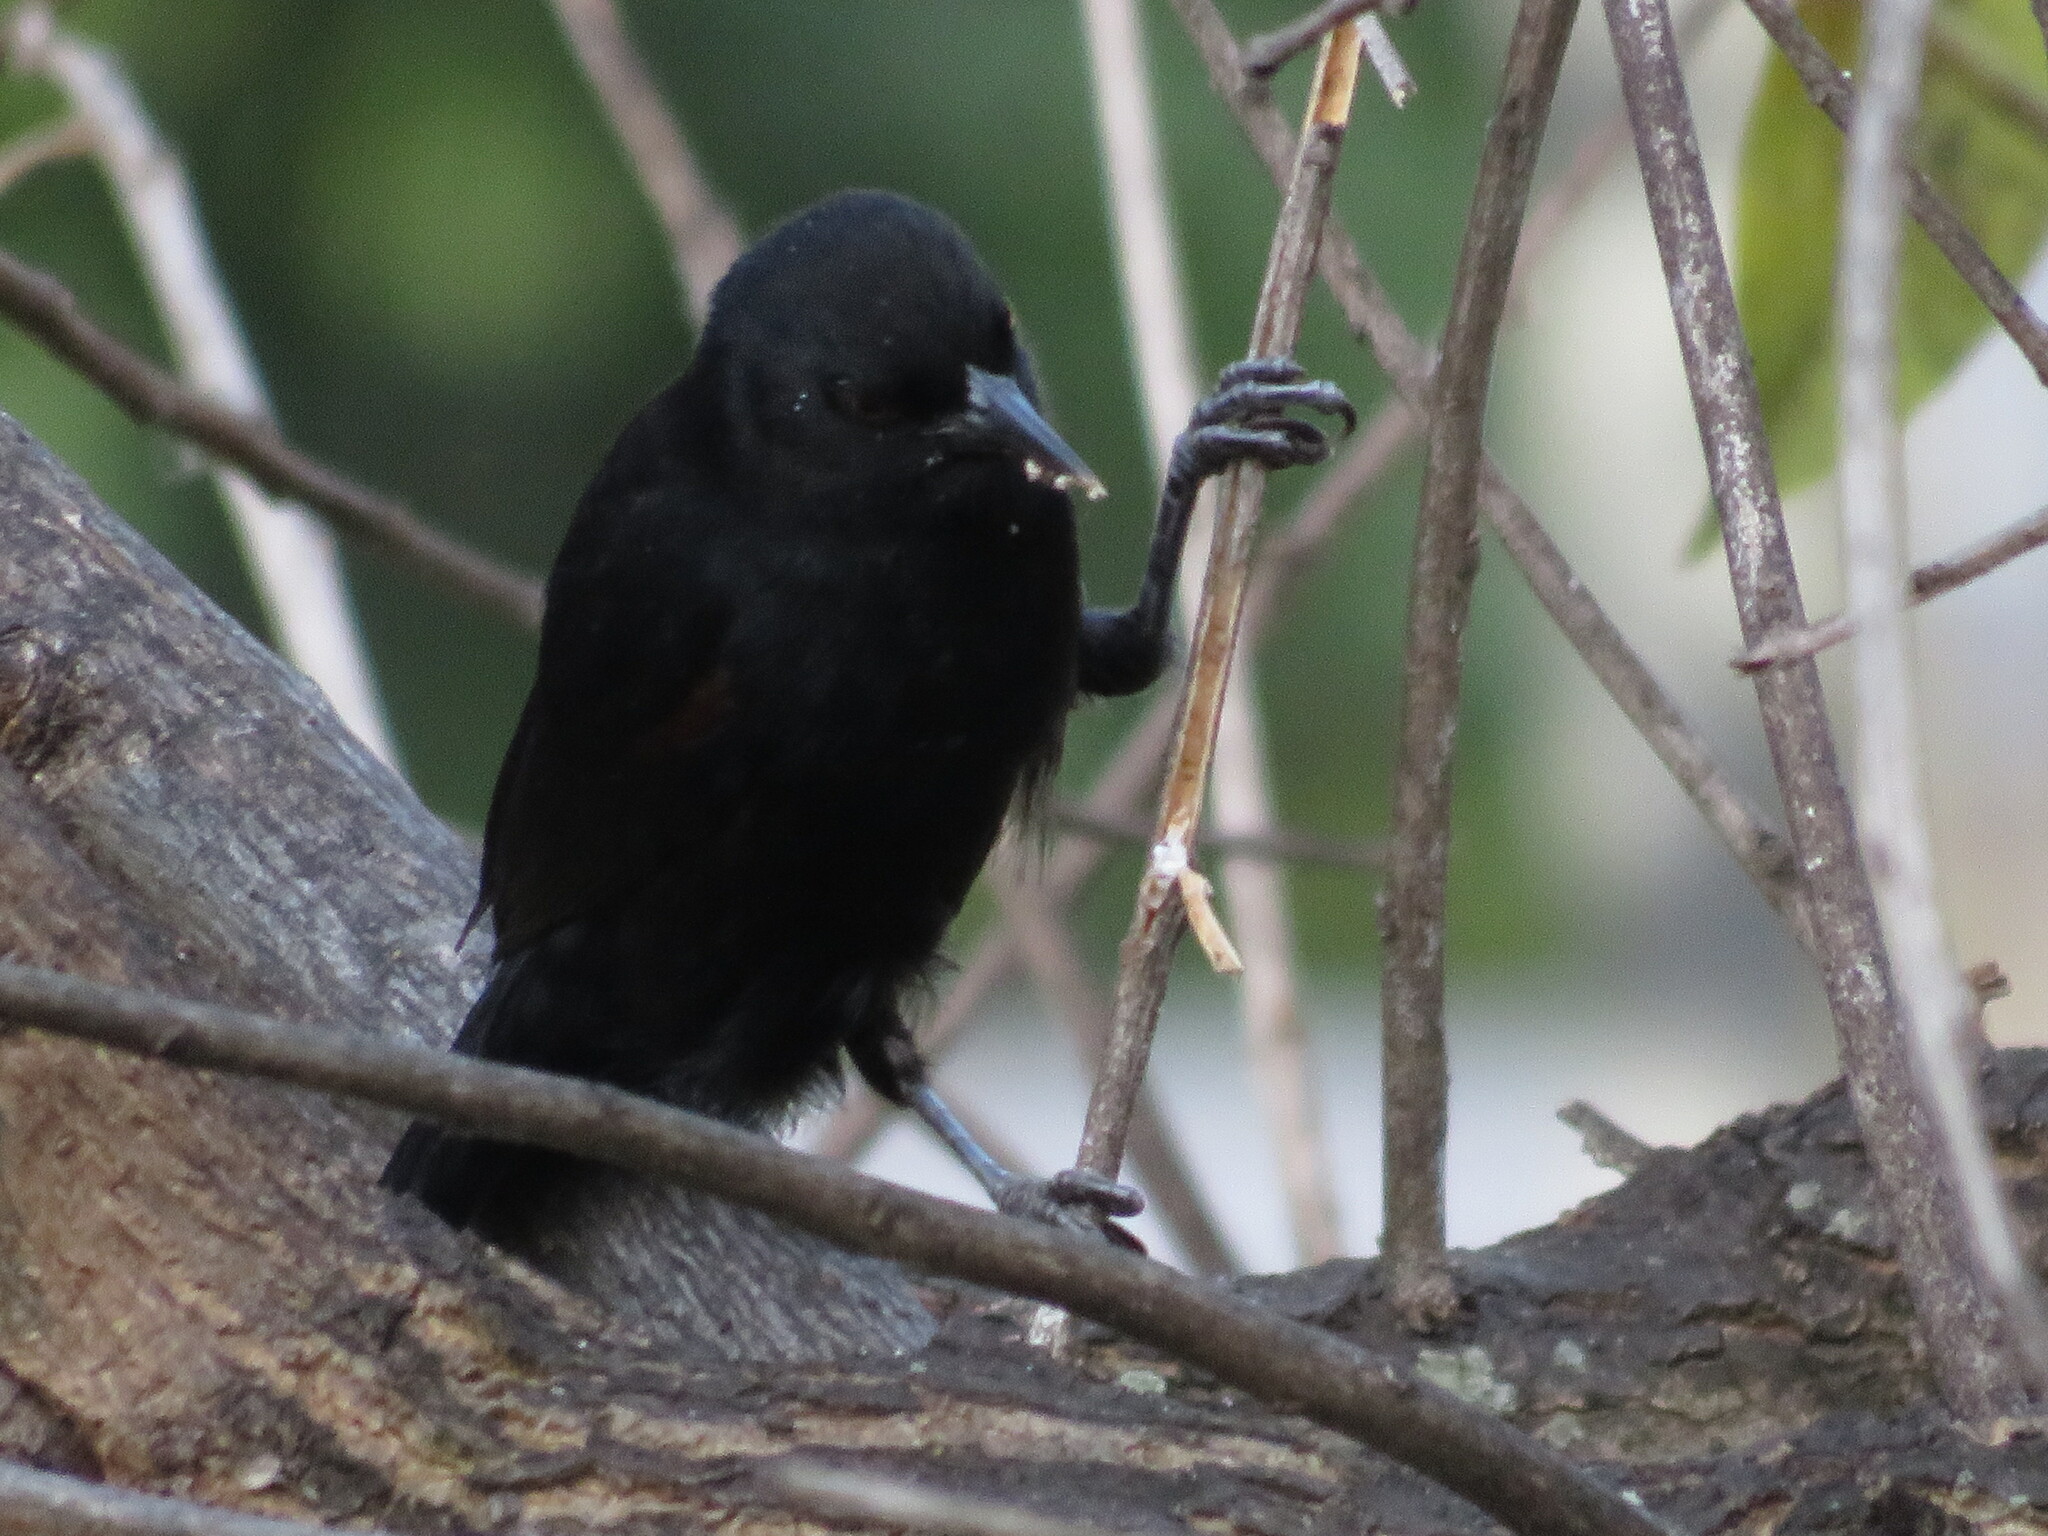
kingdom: Animalia
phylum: Chordata
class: Aves
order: Passeriformes
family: Icteridae
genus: Icterus
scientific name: Icterus cayanensis
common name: Epaulet oriole
